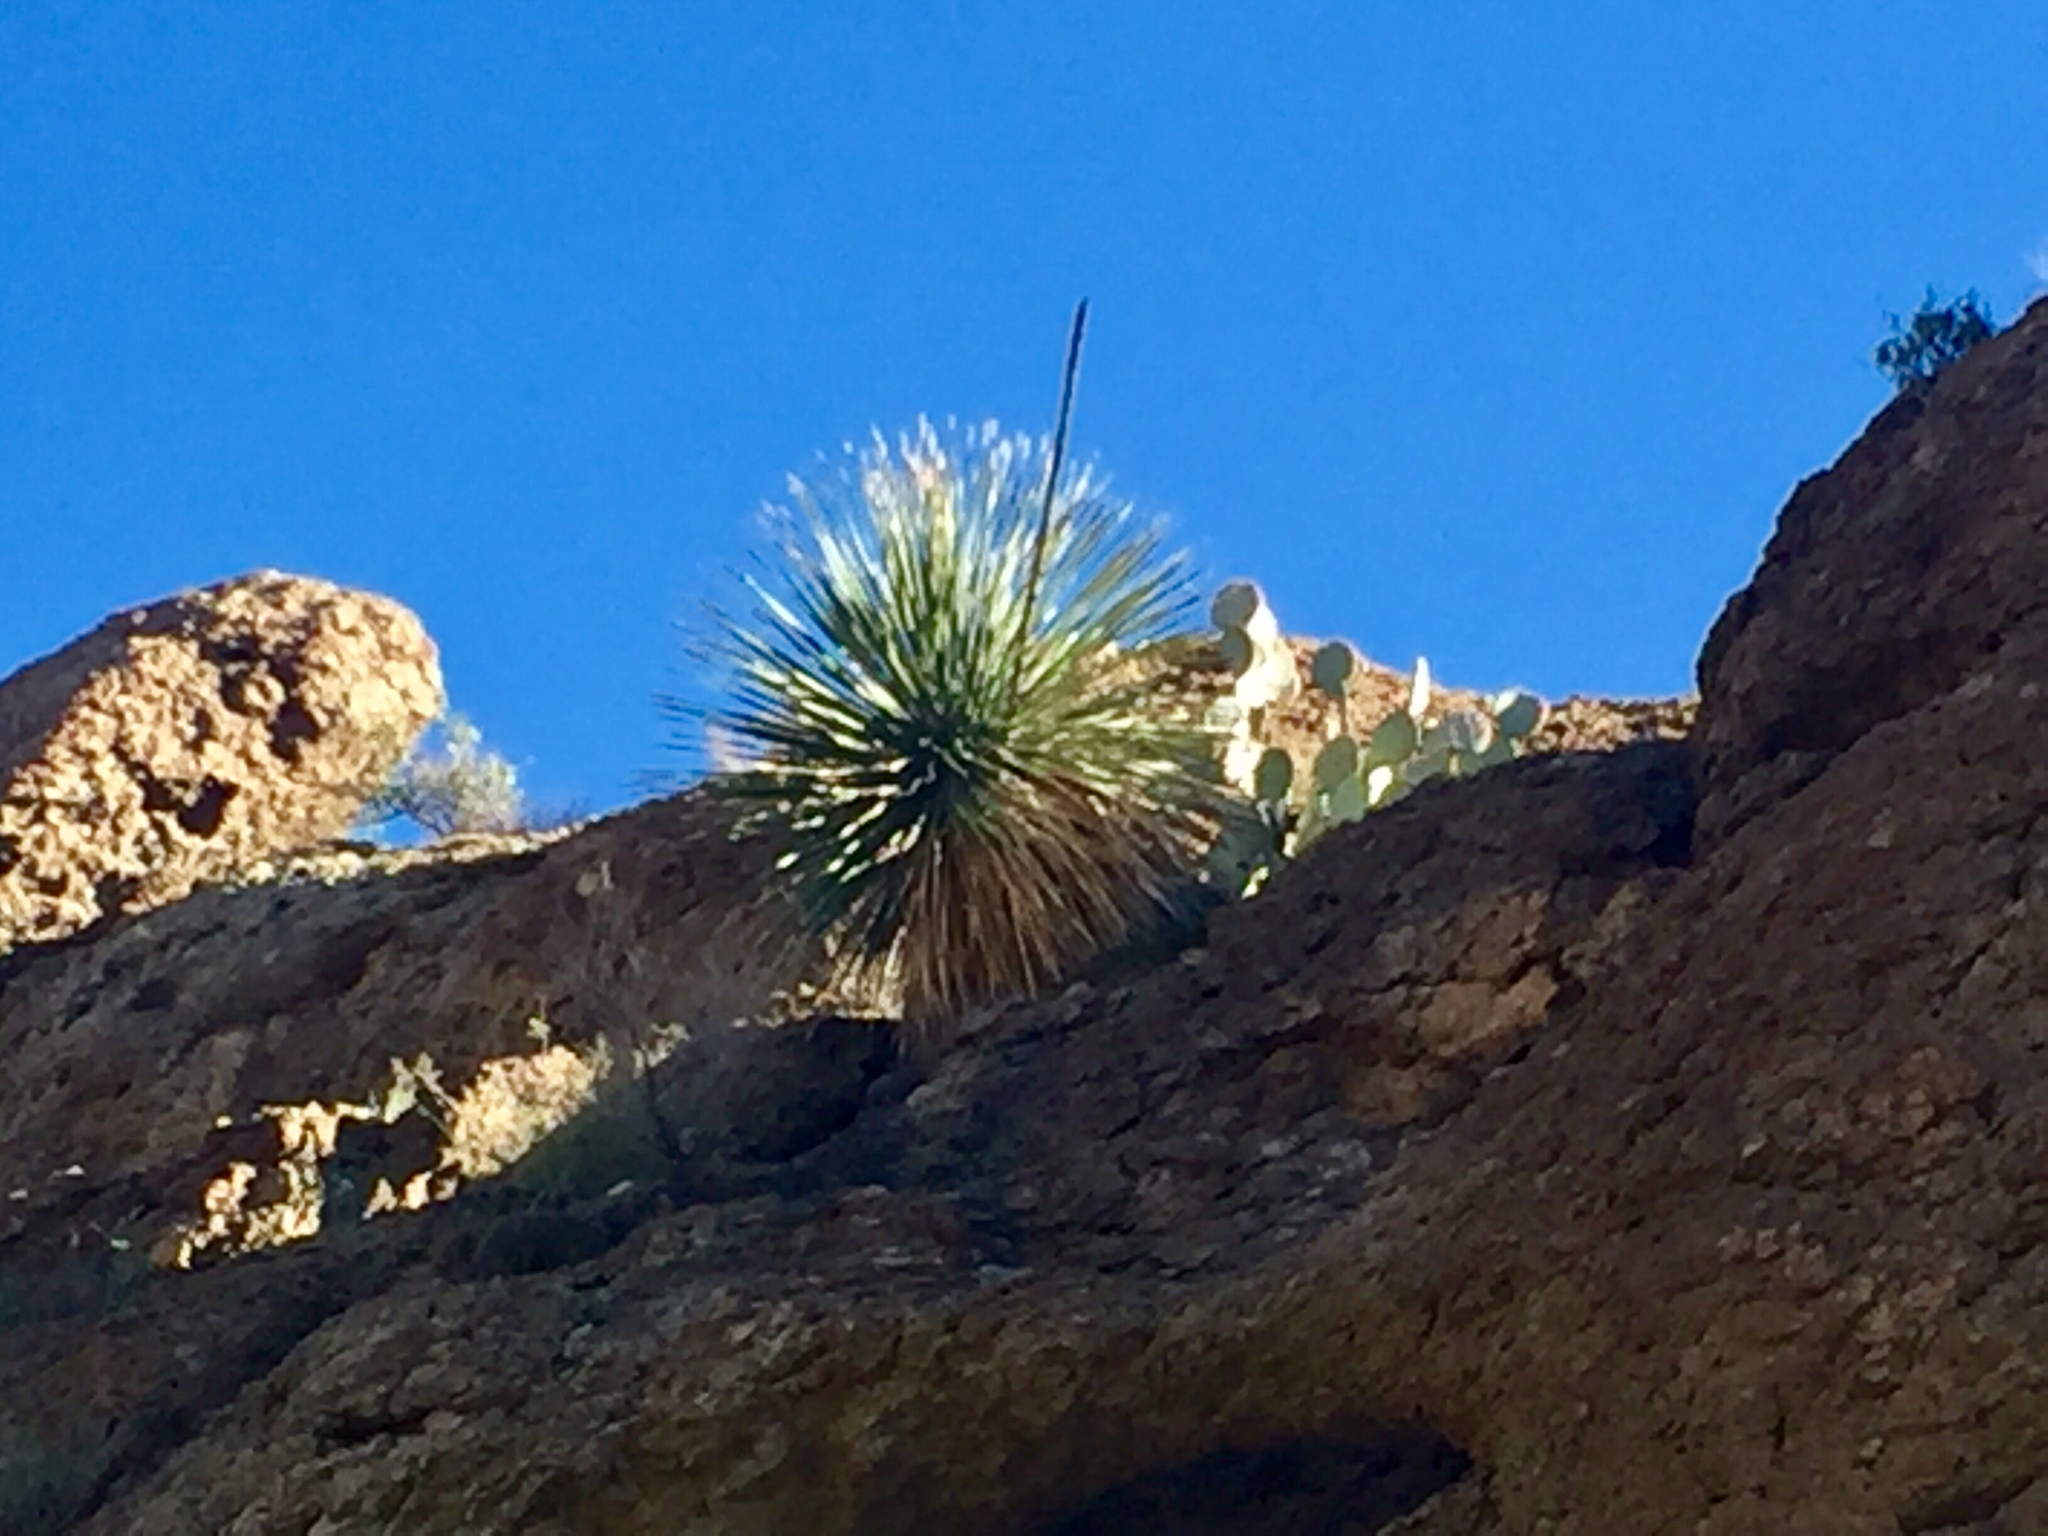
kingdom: Plantae
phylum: Tracheophyta
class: Liliopsida
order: Asparagales
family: Asparagaceae
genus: Dasylirion
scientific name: Dasylirion wheeleri
